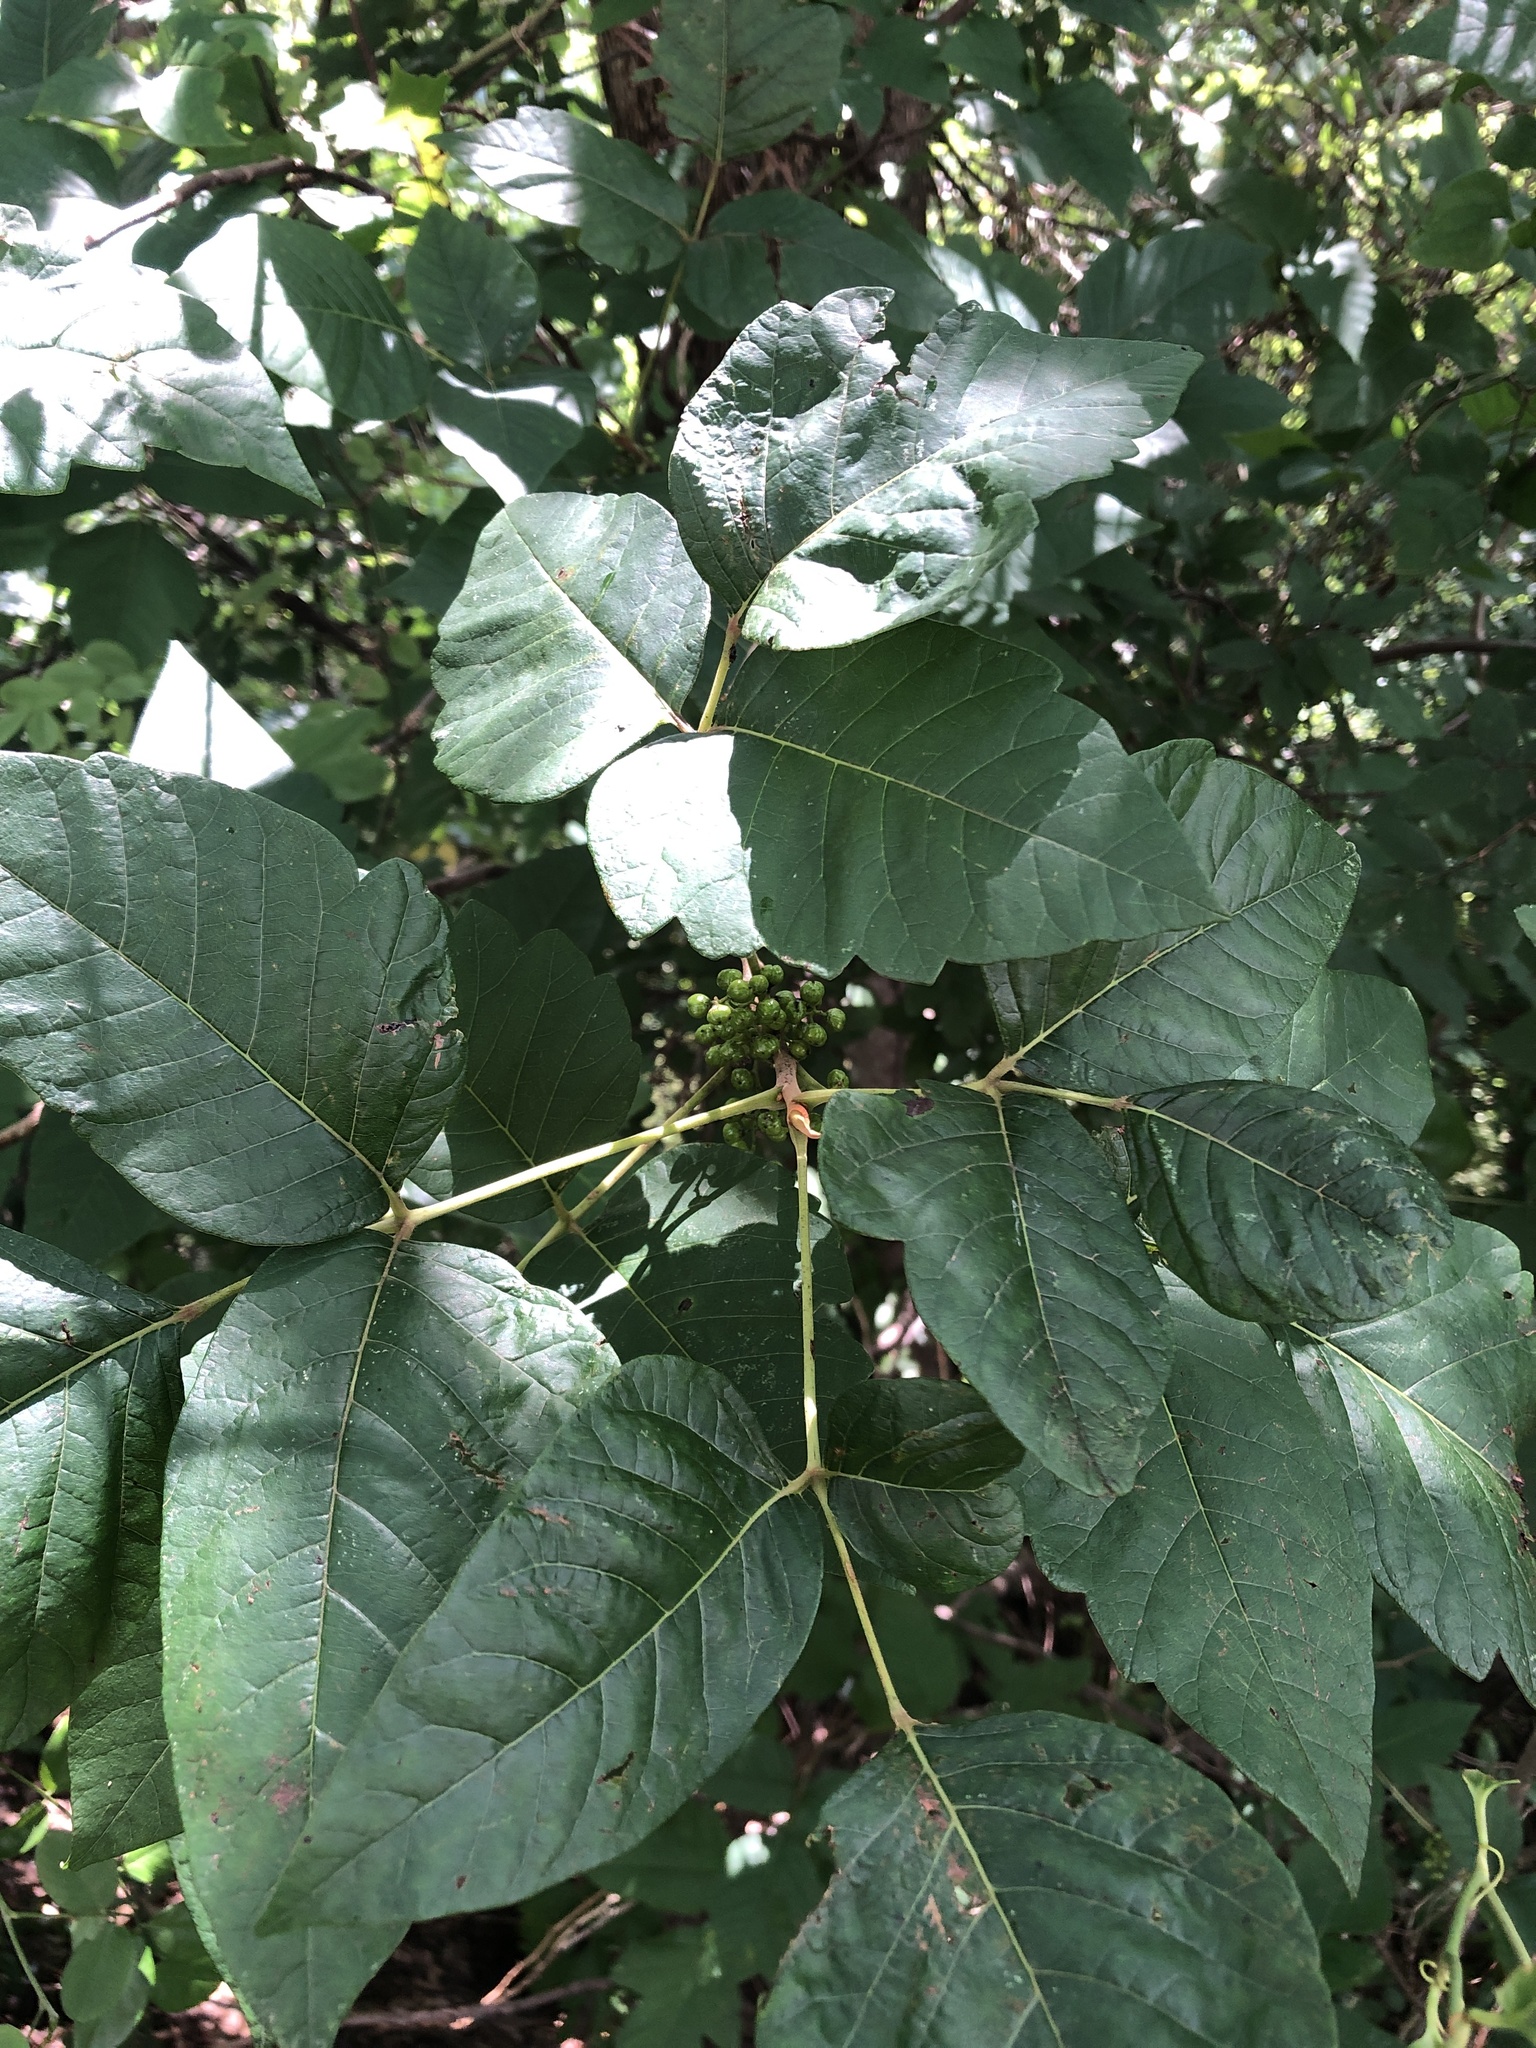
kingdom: Plantae
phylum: Tracheophyta
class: Magnoliopsida
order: Sapindales
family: Anacardiaceae
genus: Toxicodendron
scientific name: Toxicodendron radicans
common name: Poison ivy
